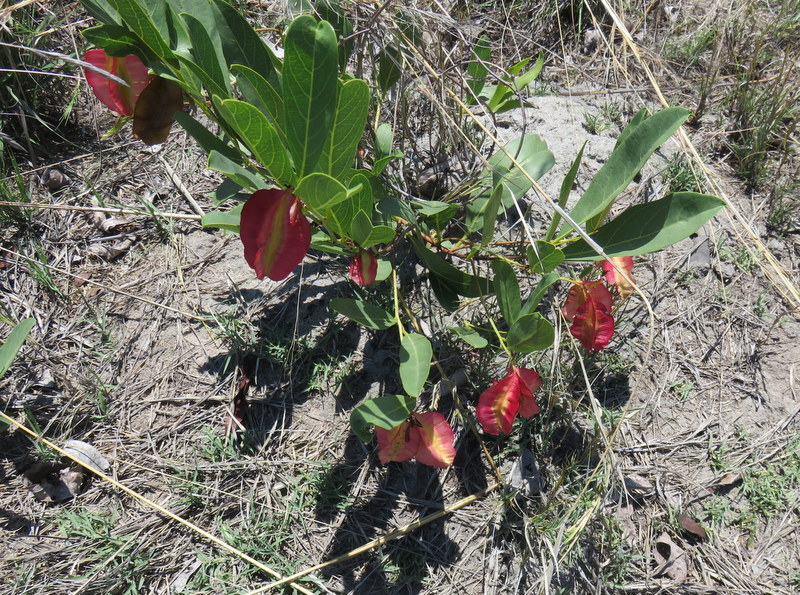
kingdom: Plantae
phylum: Tracheophyta
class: Magnoliopsida
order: Myrtales
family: Combretaceae
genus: Combretum
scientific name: Combretum platypetalum
